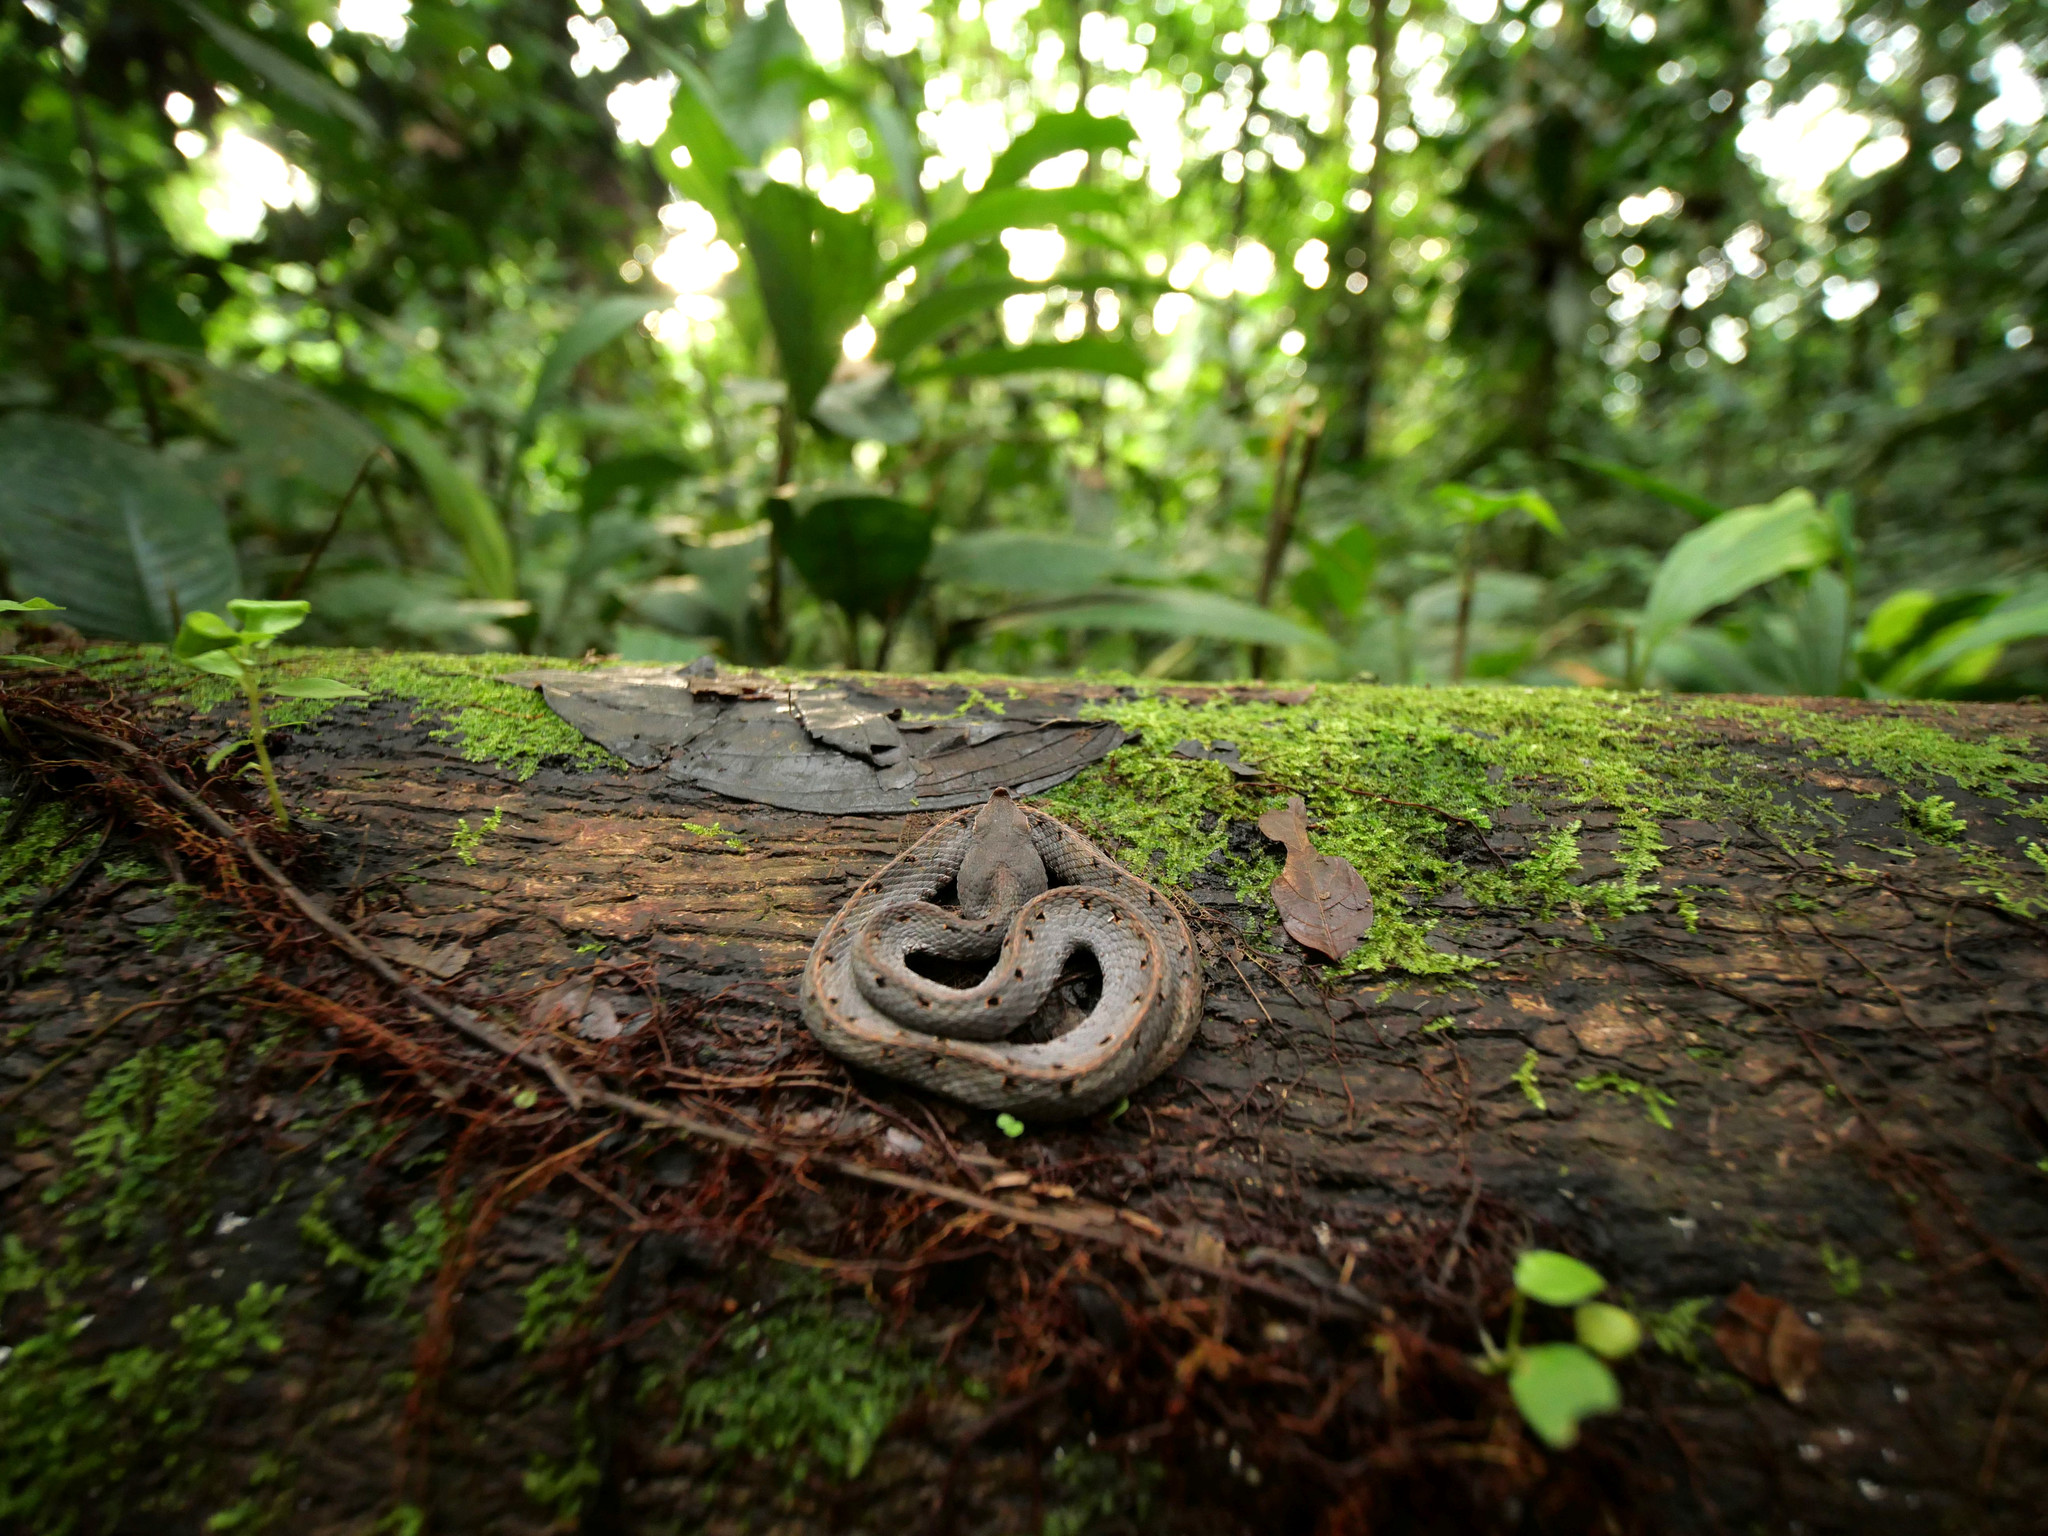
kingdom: Animalia
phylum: Chordata
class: Squamata
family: Viperidae
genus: Porthidium
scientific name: Porthidium nasutum
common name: Hognosed pit viper
